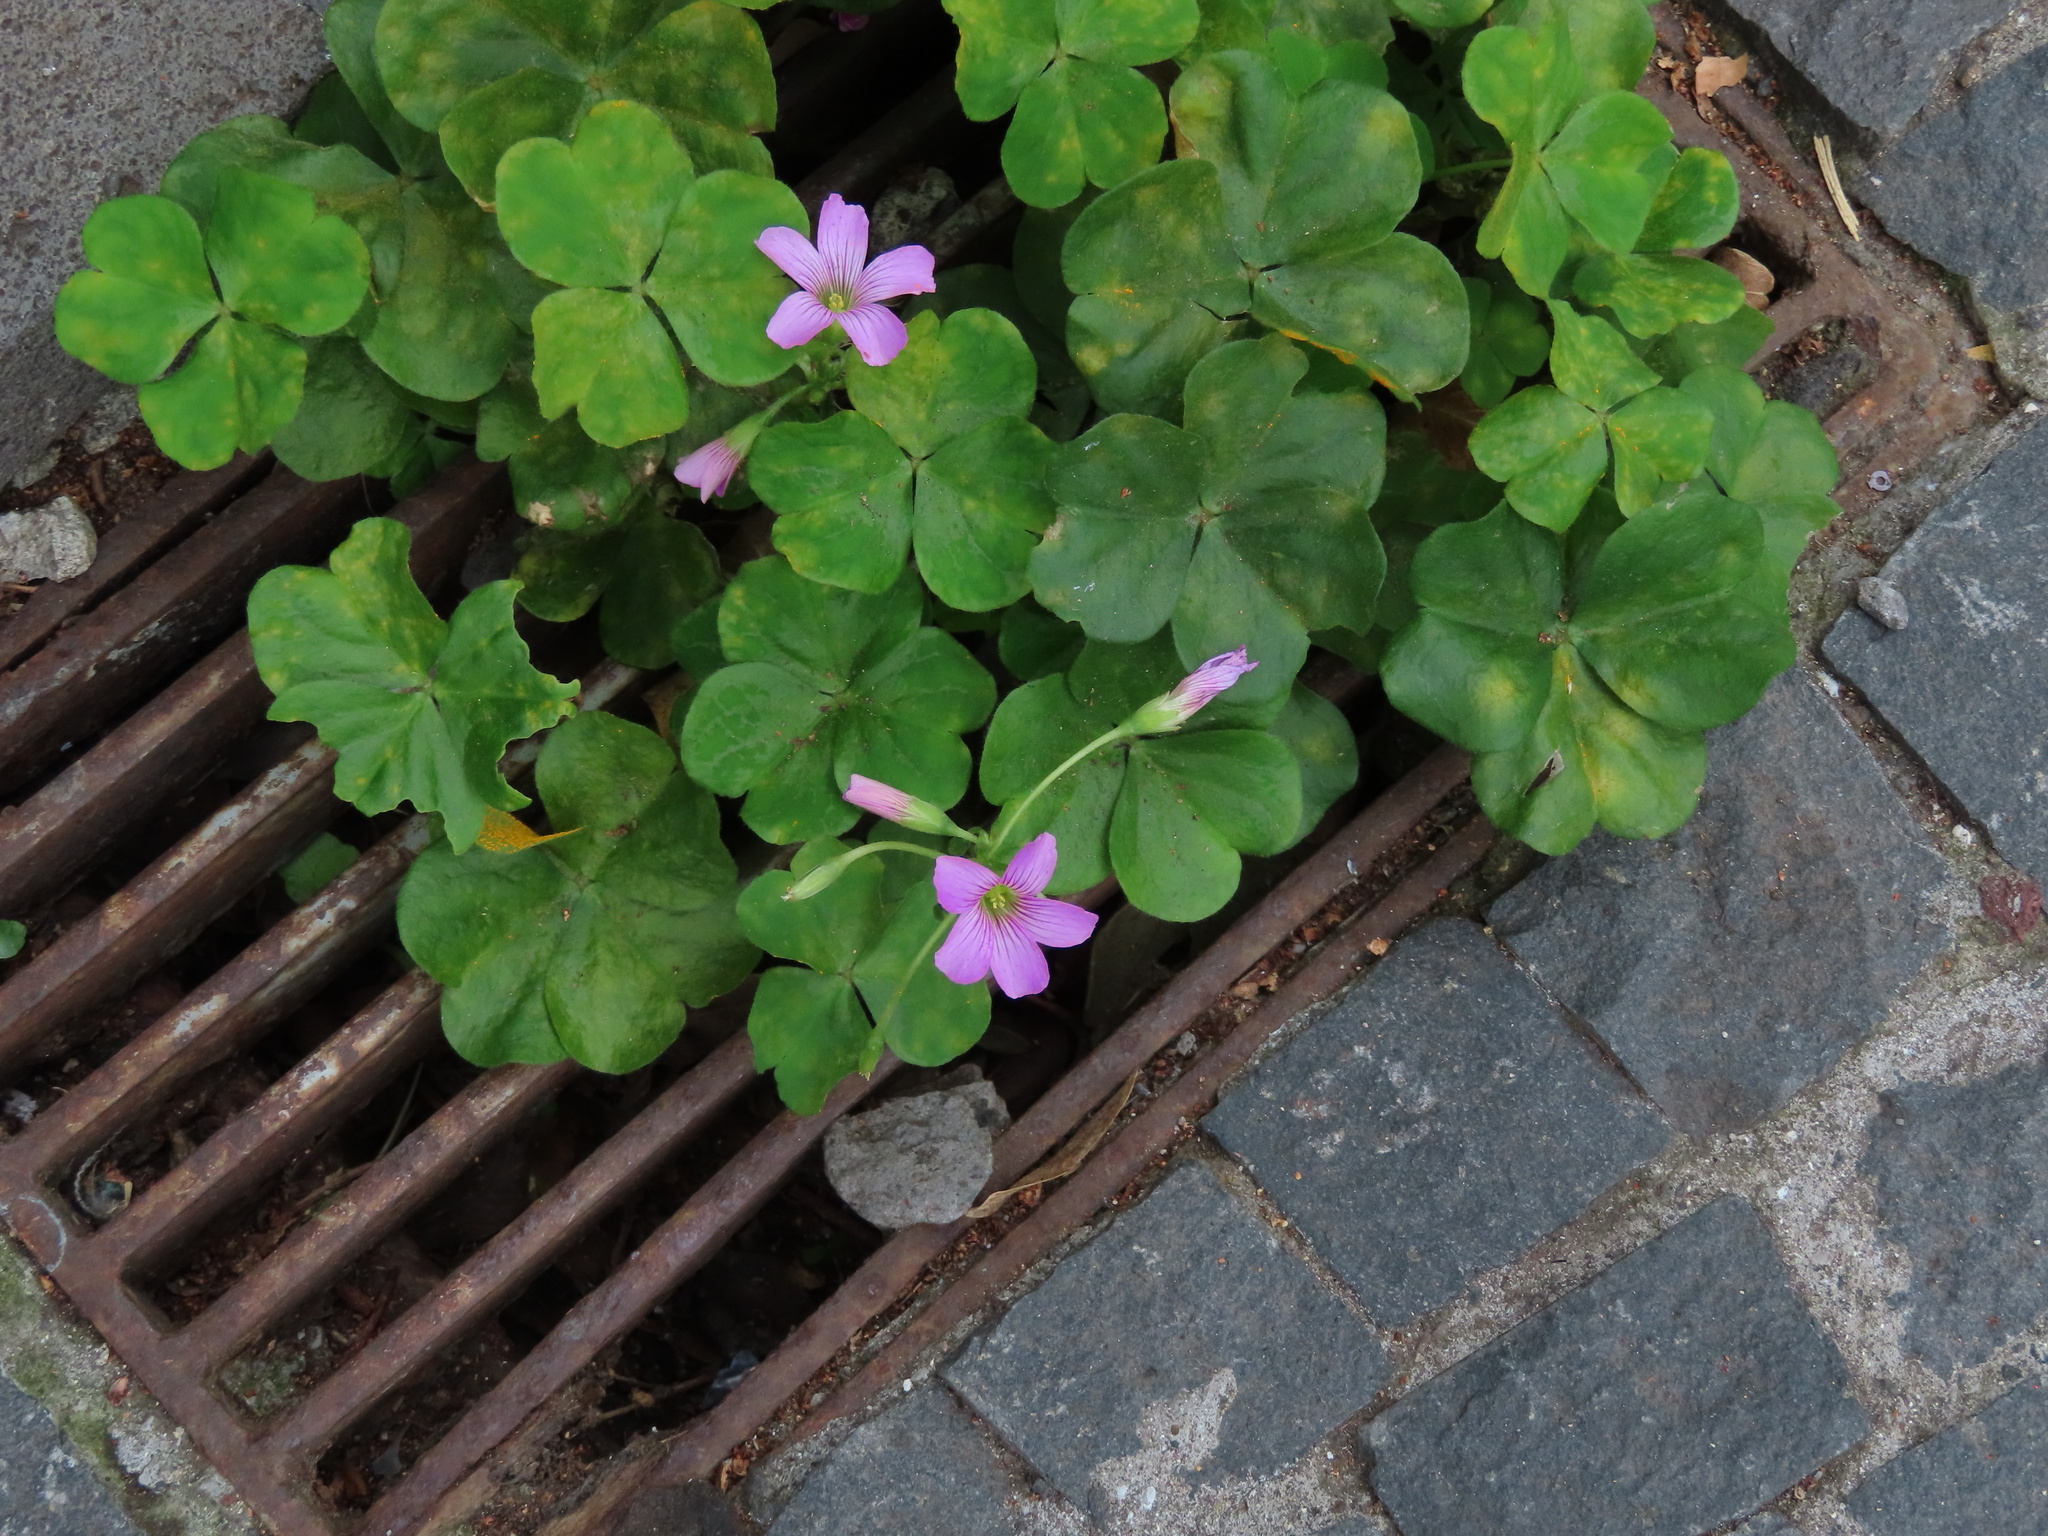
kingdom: Plantae
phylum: Tracheophyta
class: Magnoliopsida
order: Oxalidales
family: Oxalidaceae
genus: Oxalis
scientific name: Oxalis debilis
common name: Large-flowered pink-sorrel
